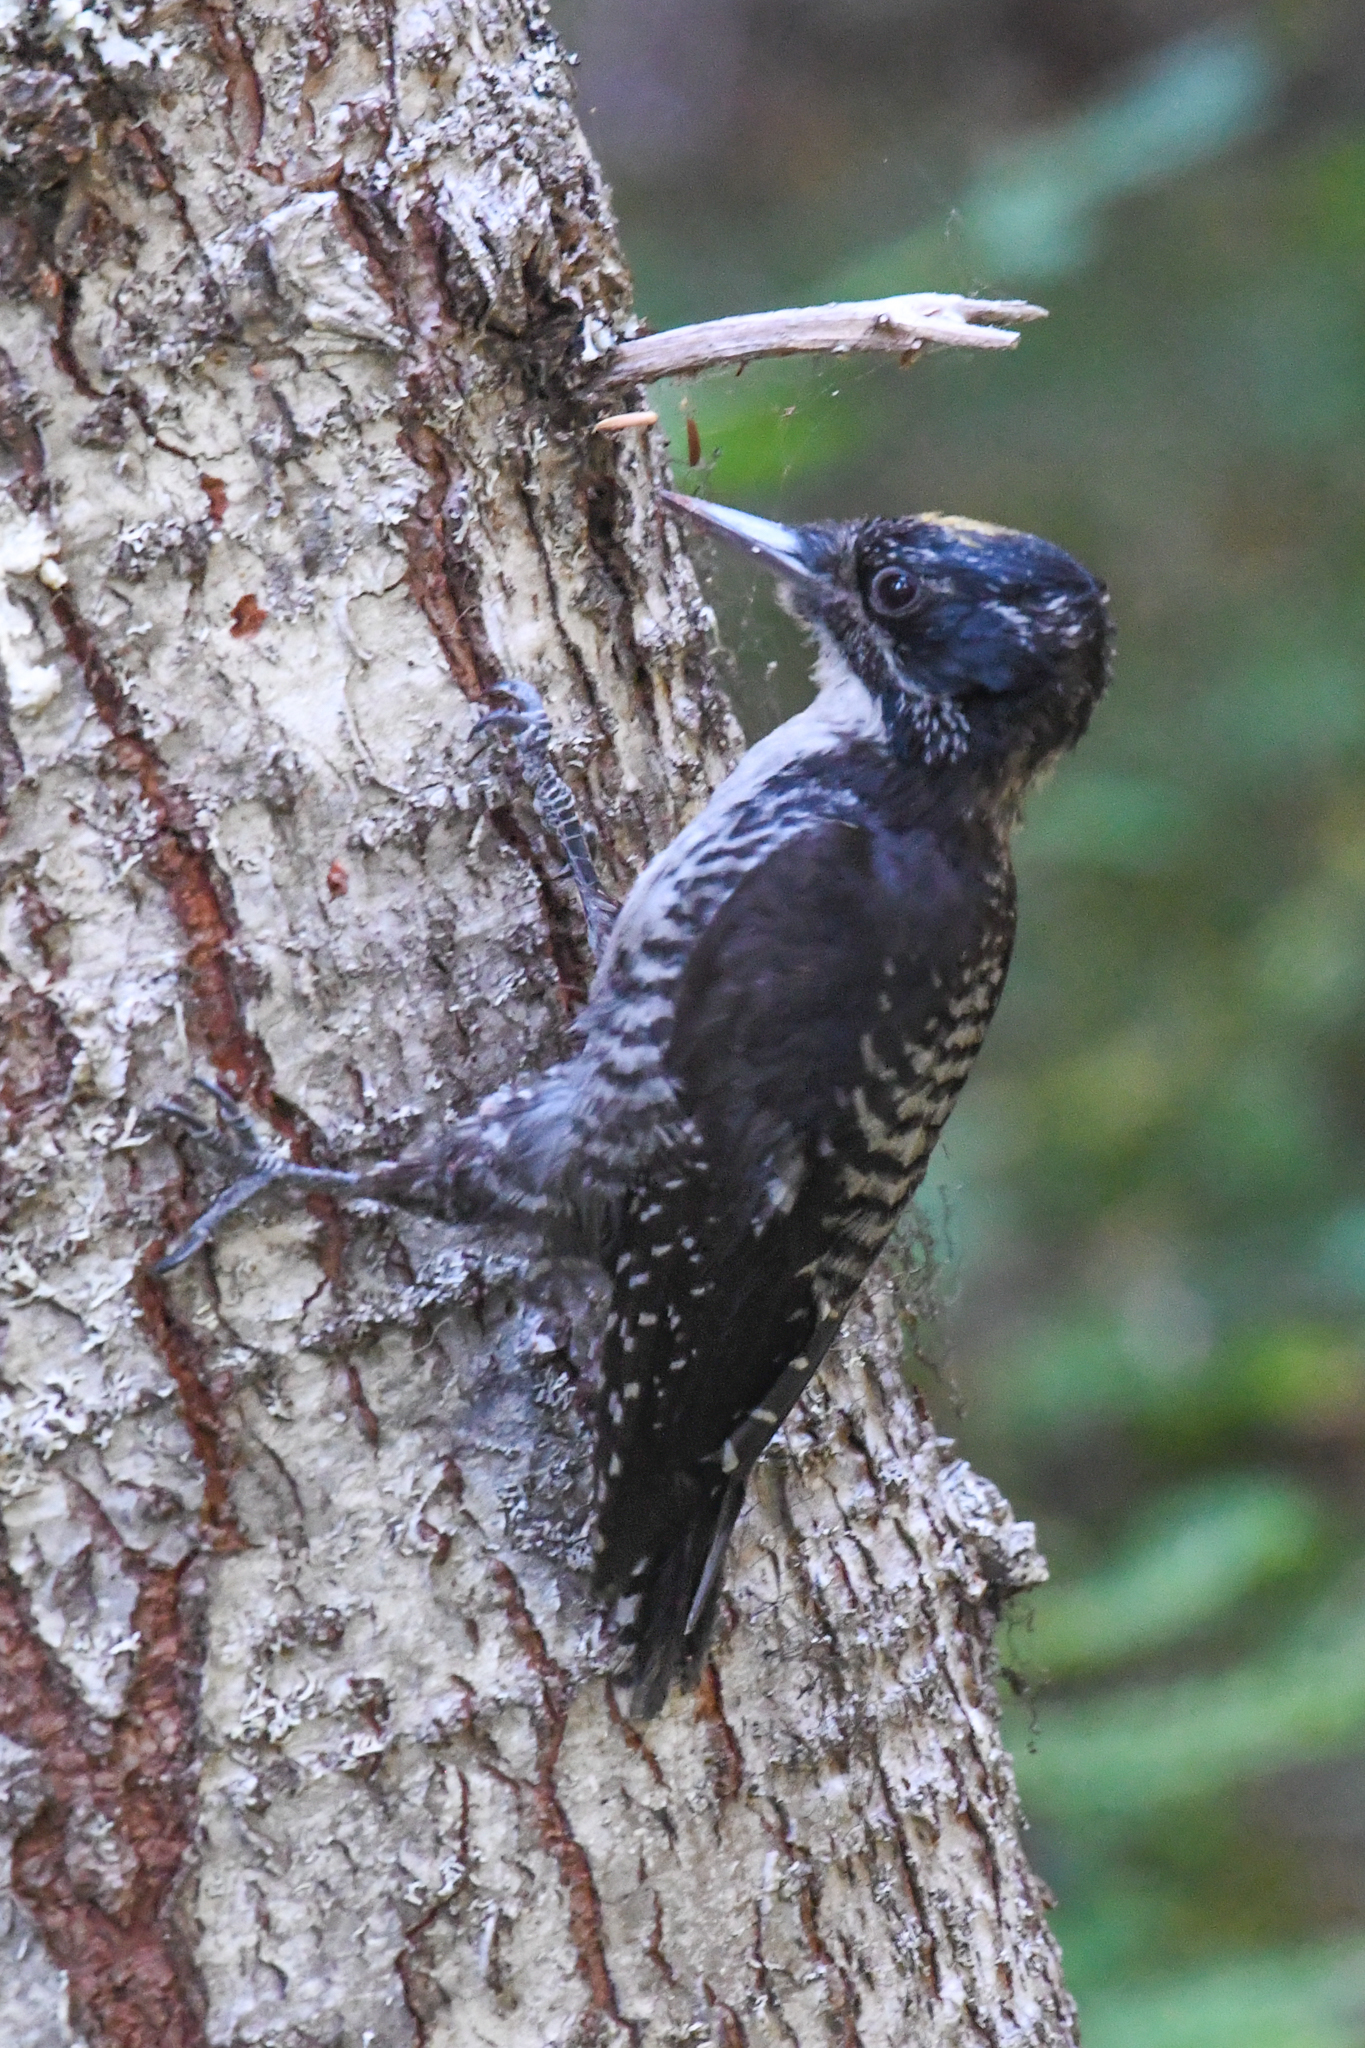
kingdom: Animalia
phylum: Chordata
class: Aves
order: Piciformes
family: Picidae
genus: Picoides
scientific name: Picoides dorsalis
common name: American three-toed woodpecker
